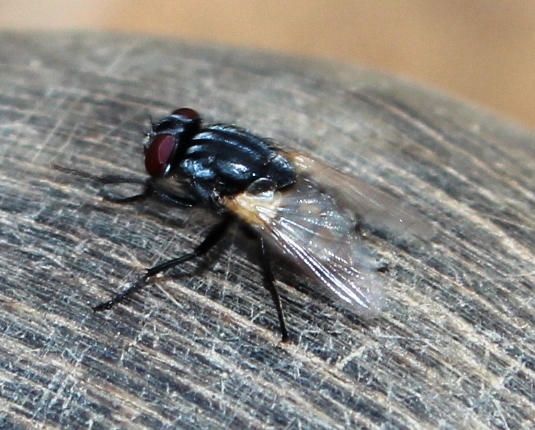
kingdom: Animalia
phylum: Arthropoda
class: Insecta
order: Diptera
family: Muscidae
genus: Musca
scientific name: Musca domestica
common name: House fly
